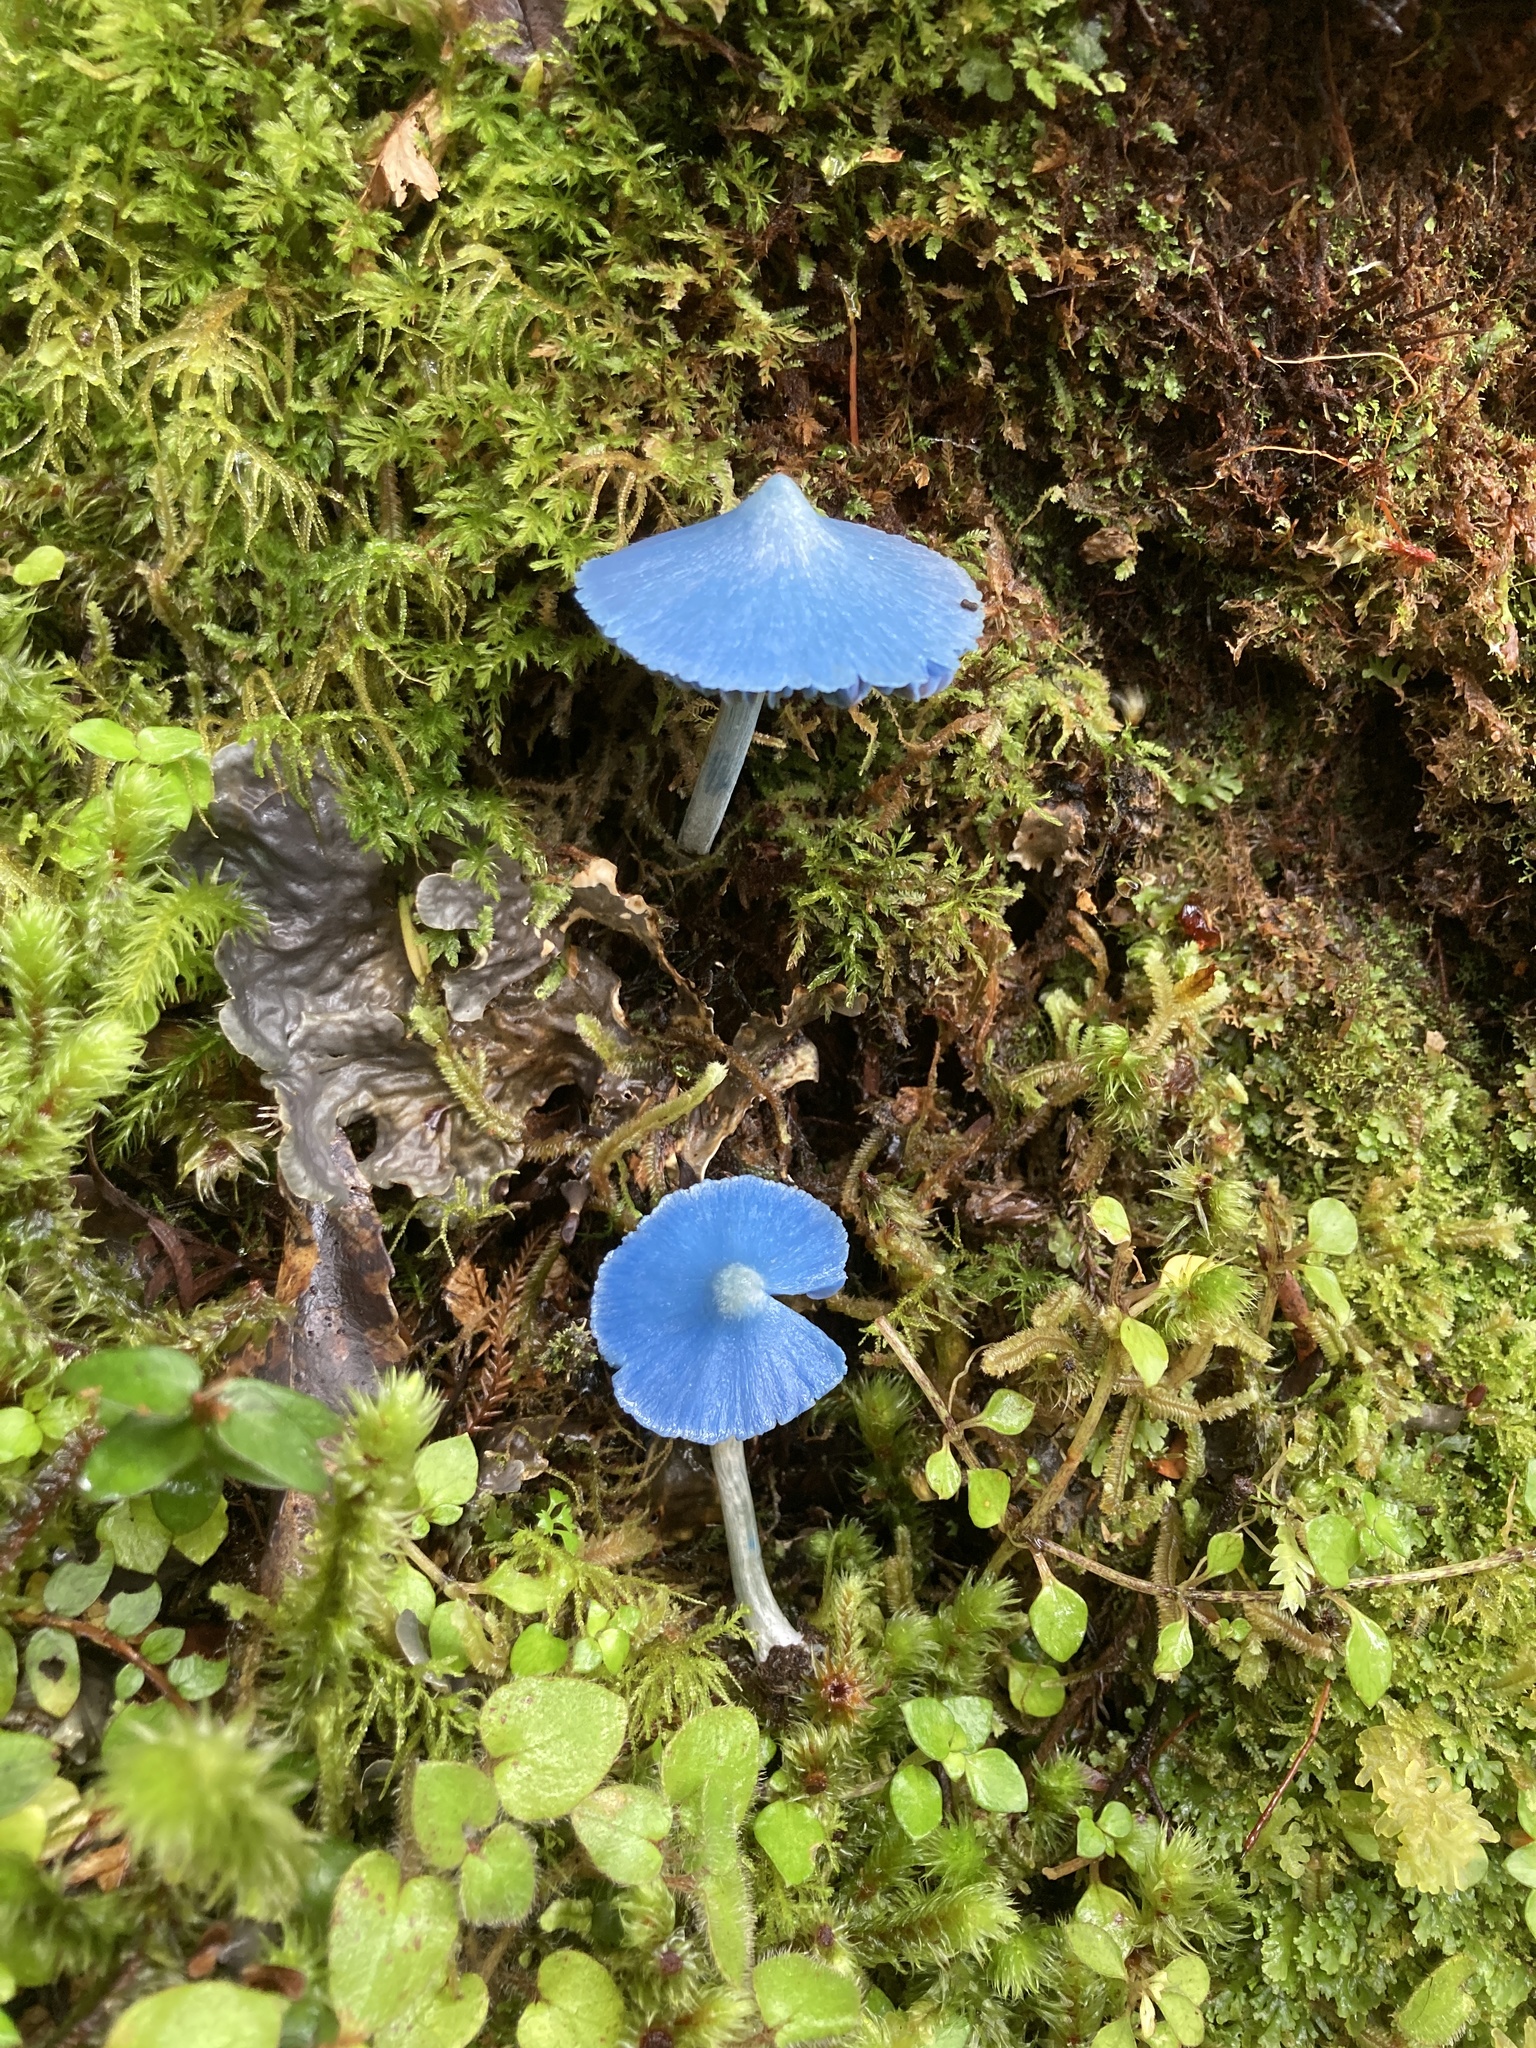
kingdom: Fungi
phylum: Basidiomycota
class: Agaricomycetes
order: Agaricales
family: Entolomataceae
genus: Entoloma
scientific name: Entoloma hochstetteri
